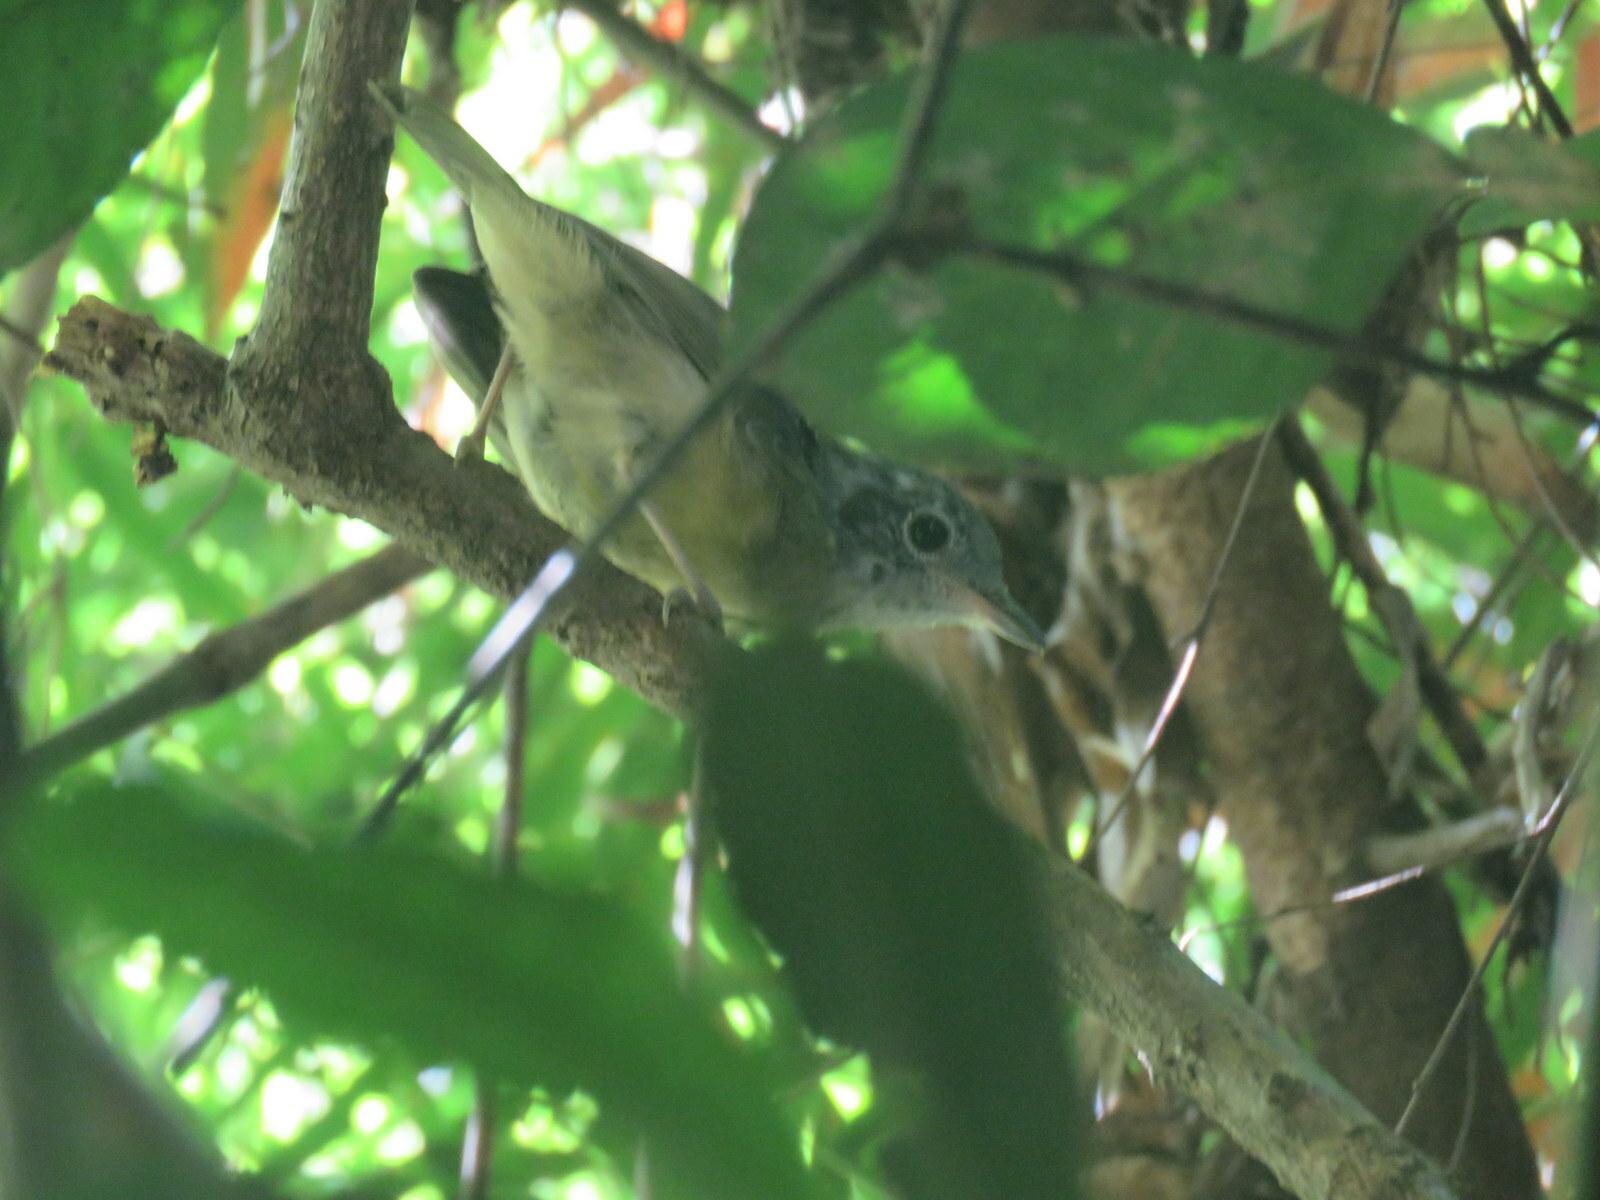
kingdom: Animalia
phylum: Chordata
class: Aves
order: Passeriformes
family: Thamnophilidae
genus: Dysithamnus
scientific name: Dysithamnus mentalis
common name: Plain antvireo
